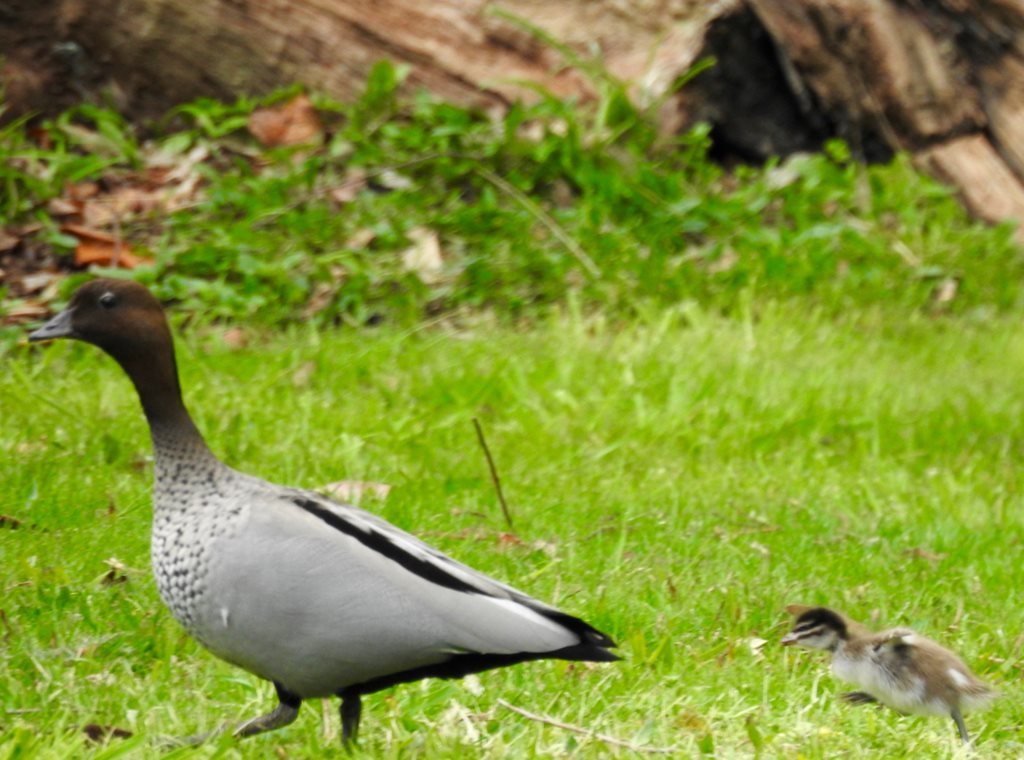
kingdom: Animalia
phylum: Chordata
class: Aves
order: Anseriformes
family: Anatidae
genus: Chenonetta
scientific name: Chenonetta jubata
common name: Maned duck
